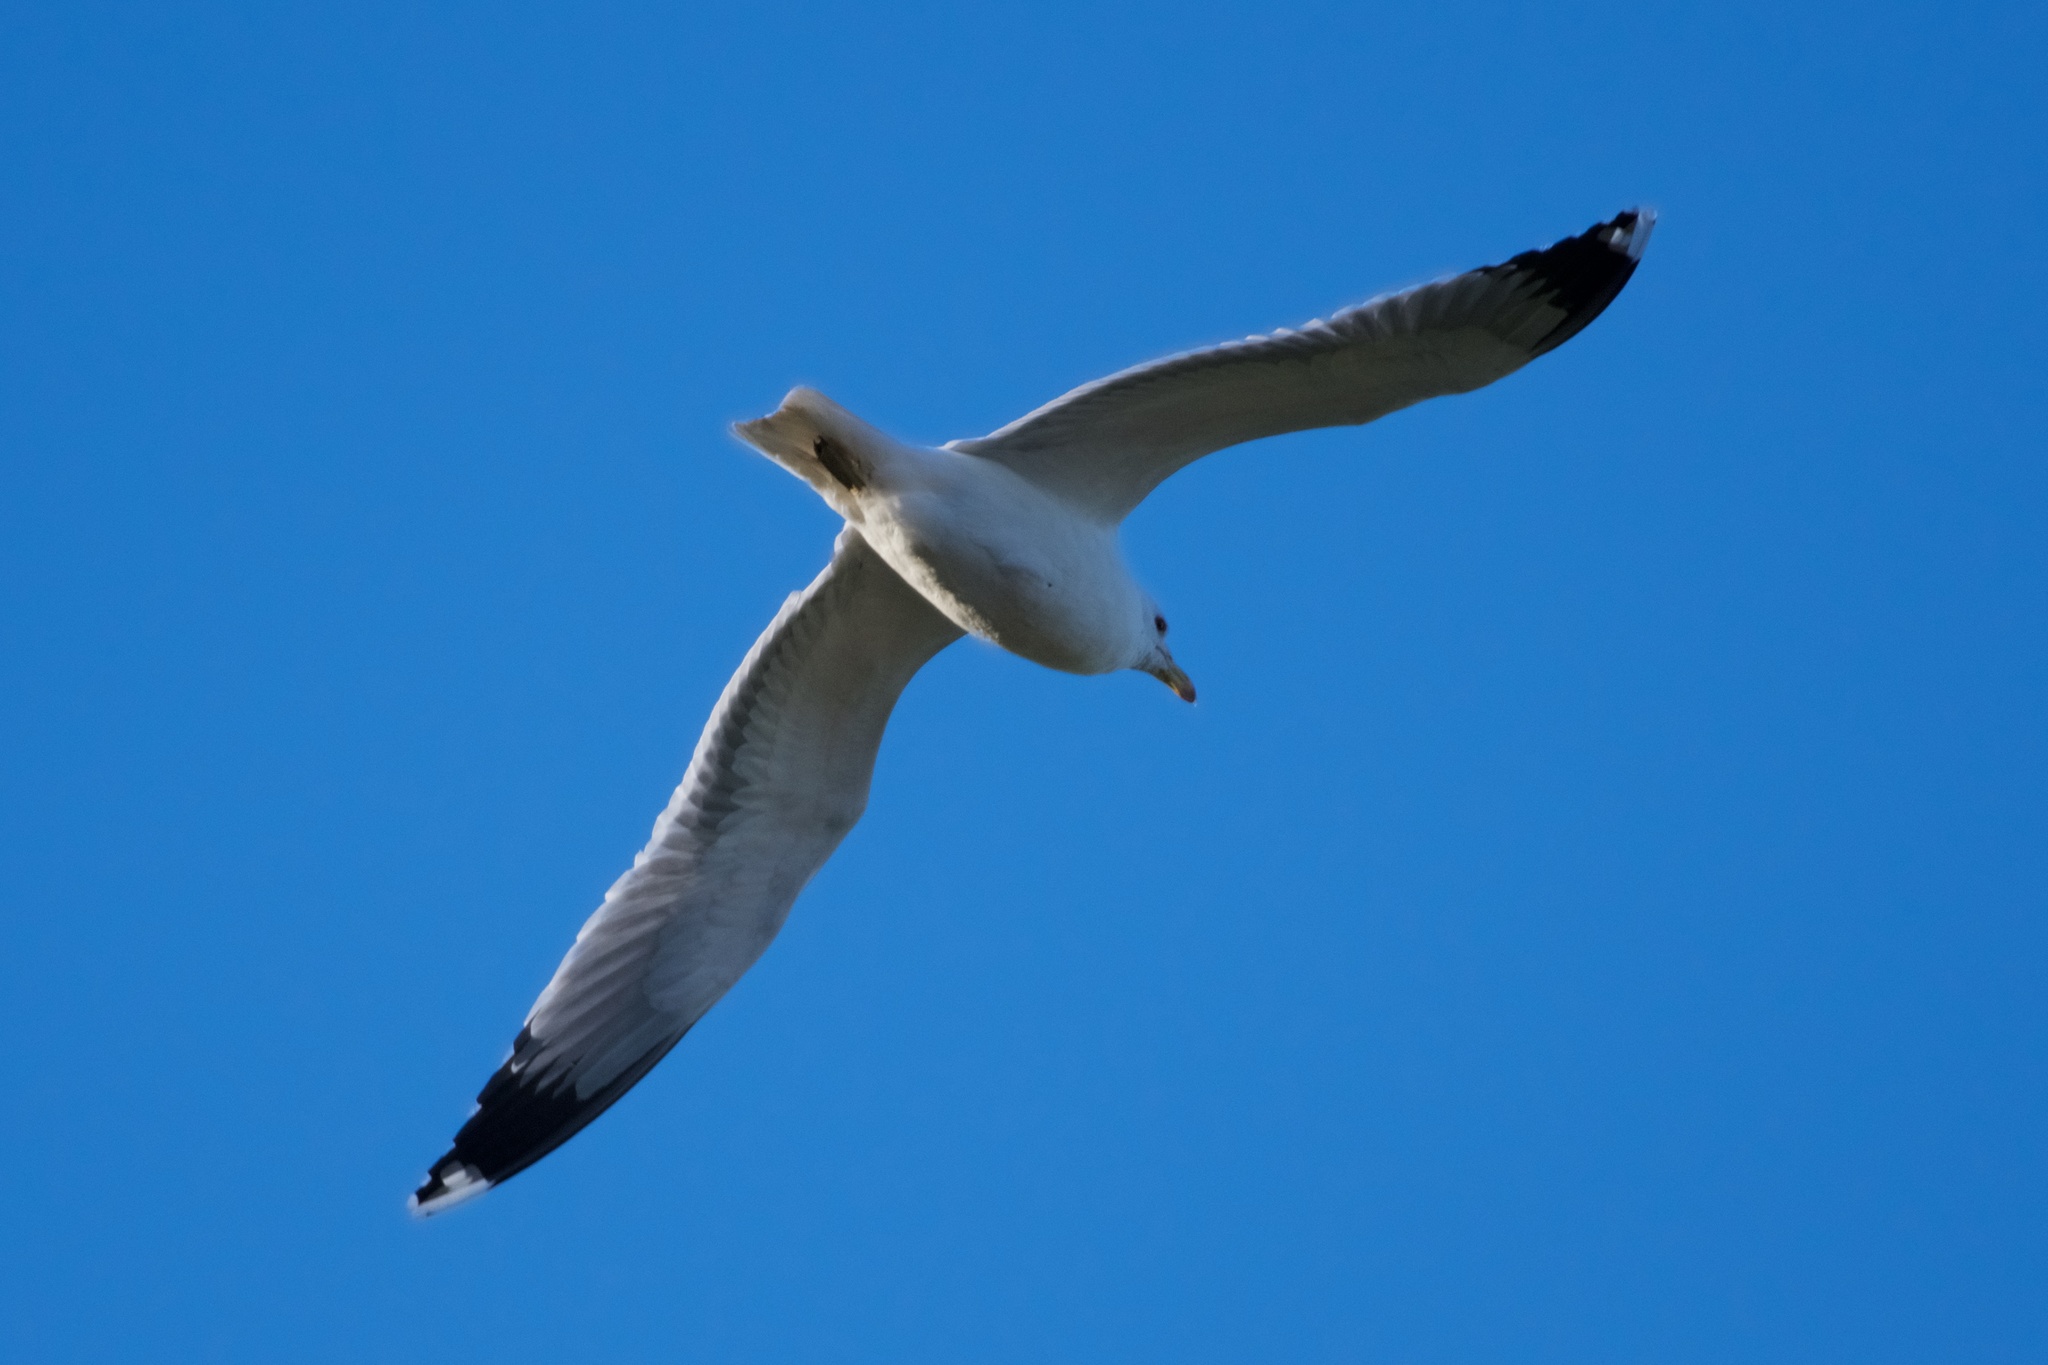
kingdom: Animalia
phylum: Chordata
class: Aves
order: Charadriiformes
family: Laridae
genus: Larus
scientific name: Larus californicus
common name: California gull
